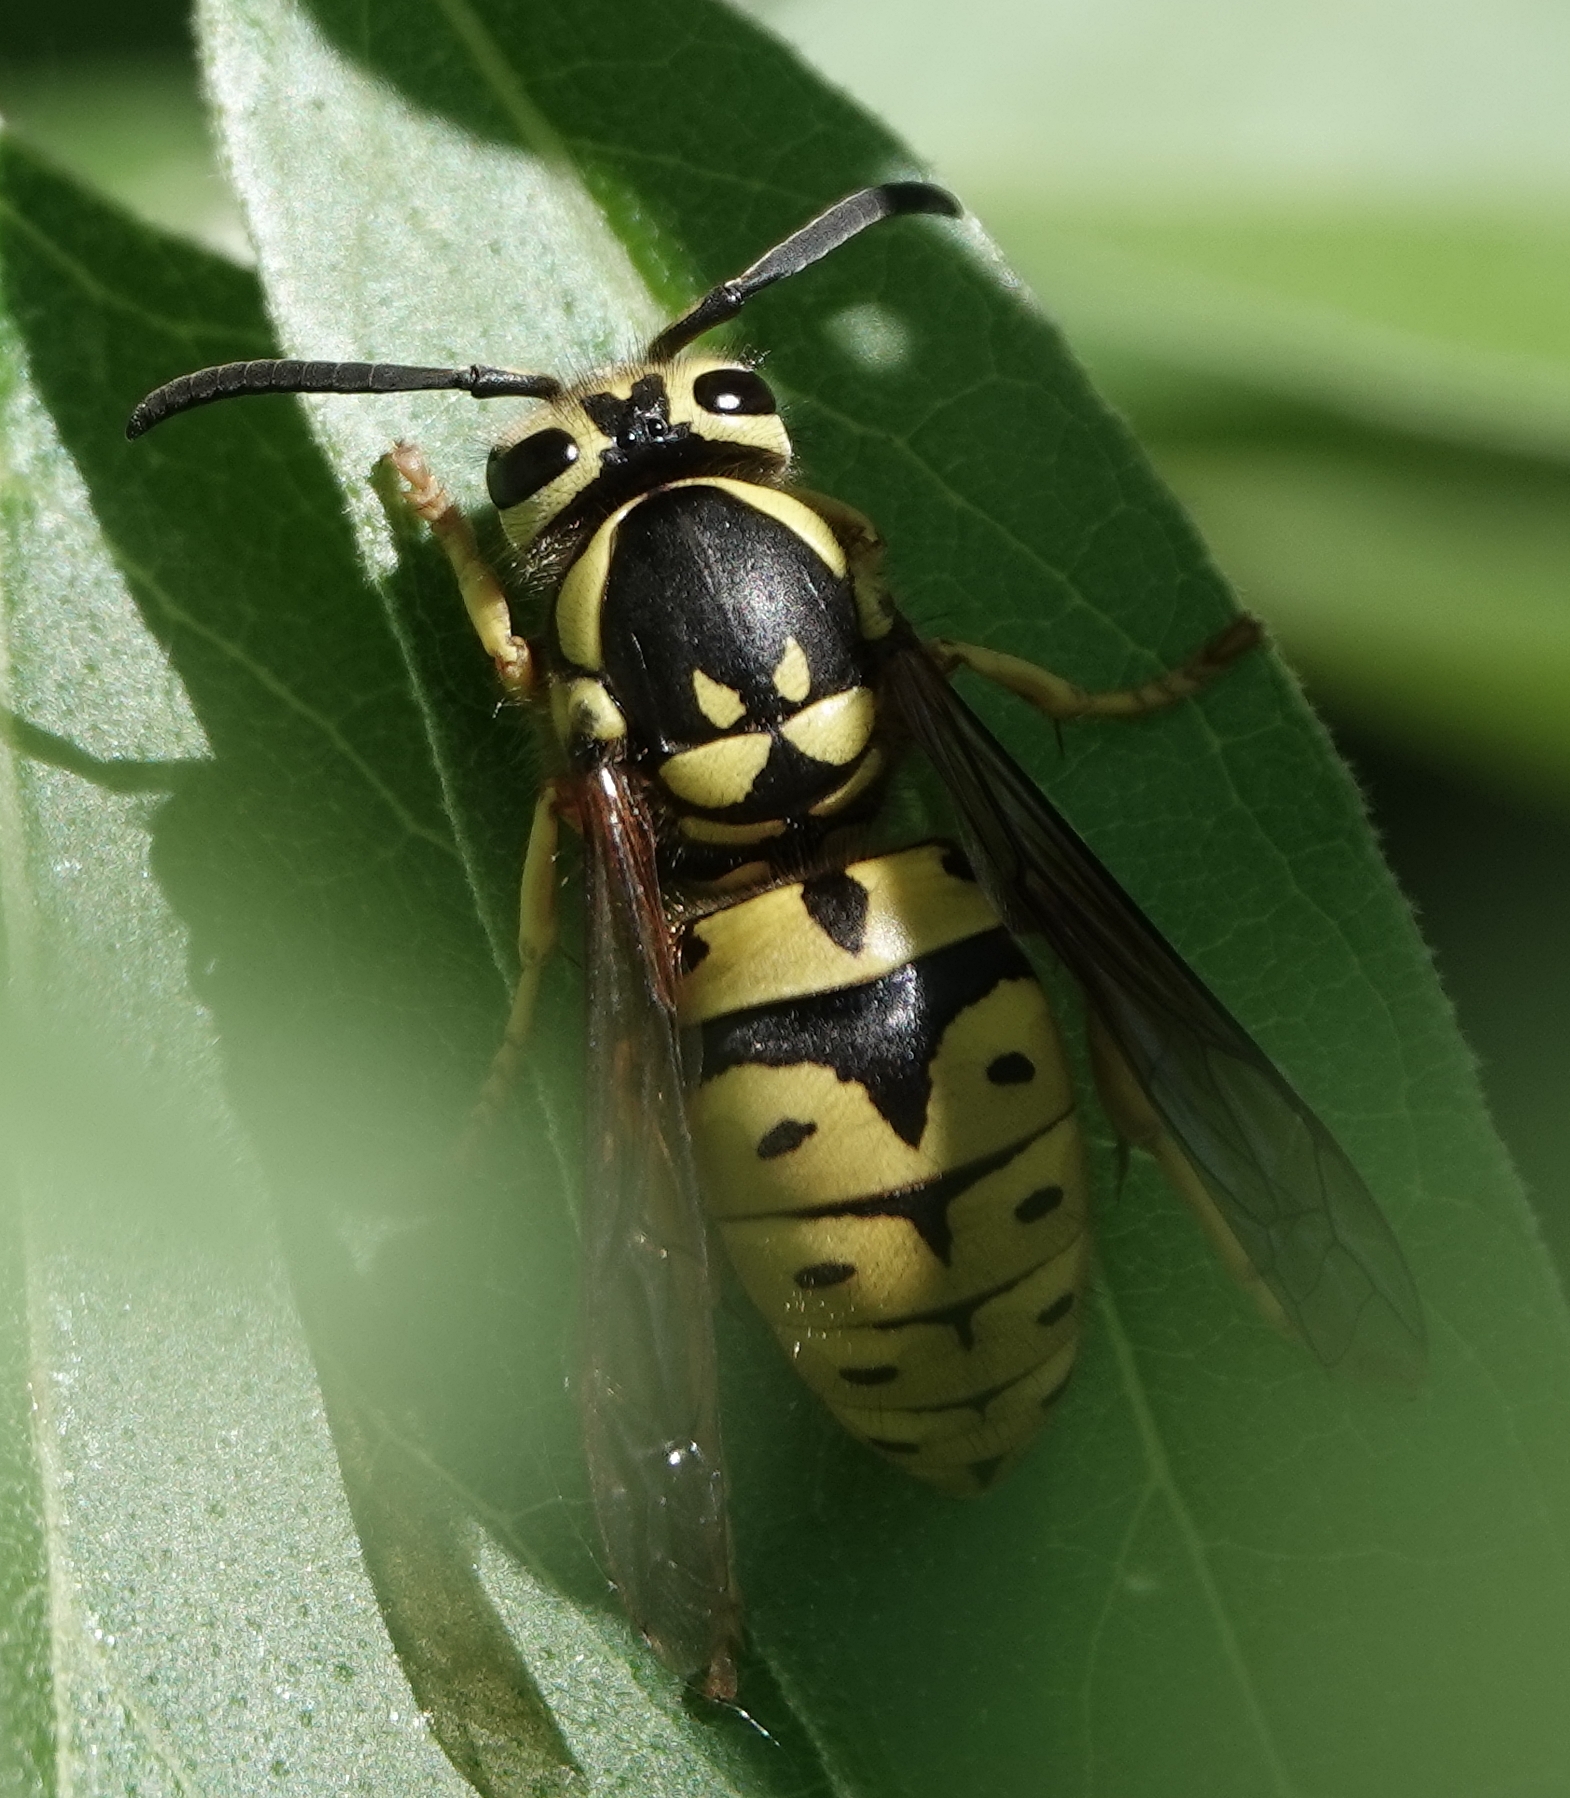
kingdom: Animalia
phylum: Arthropoda
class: Insecta
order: Hymenoptera
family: Vespidae
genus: Vespula
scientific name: Vespula pensylvanica
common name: Western yellowjacket
